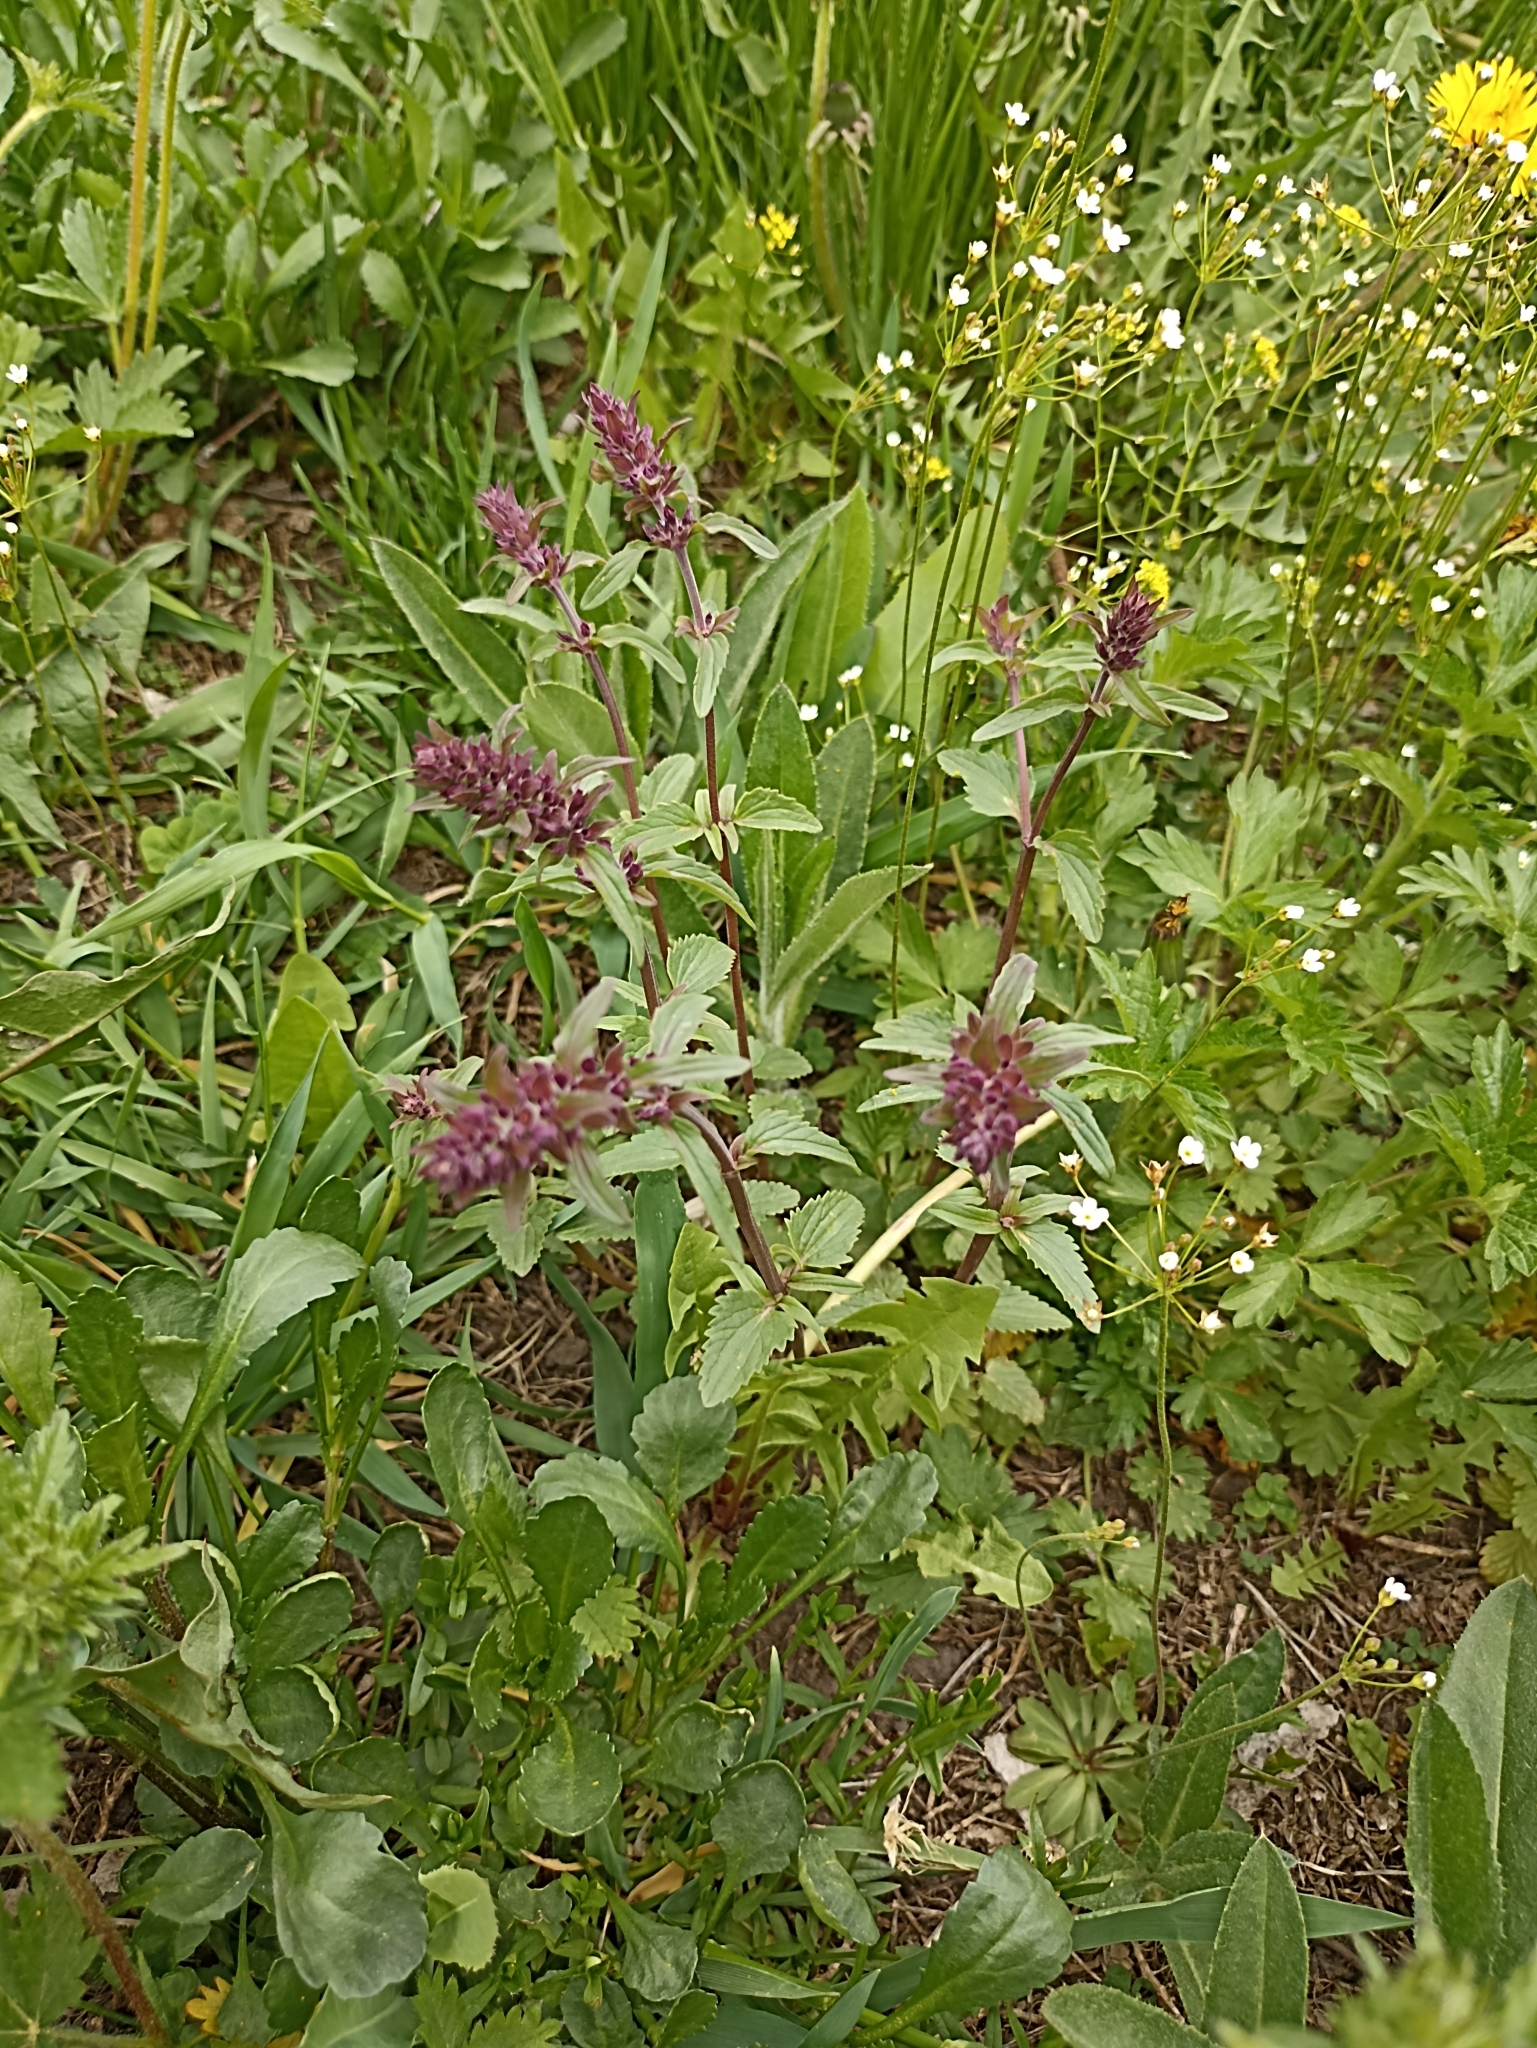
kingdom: Plantae
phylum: Tracheophyta
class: Magnoliopsida
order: Lamiales
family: Lamiaceae
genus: Dracocephalum
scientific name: Dracocephalum nutans
